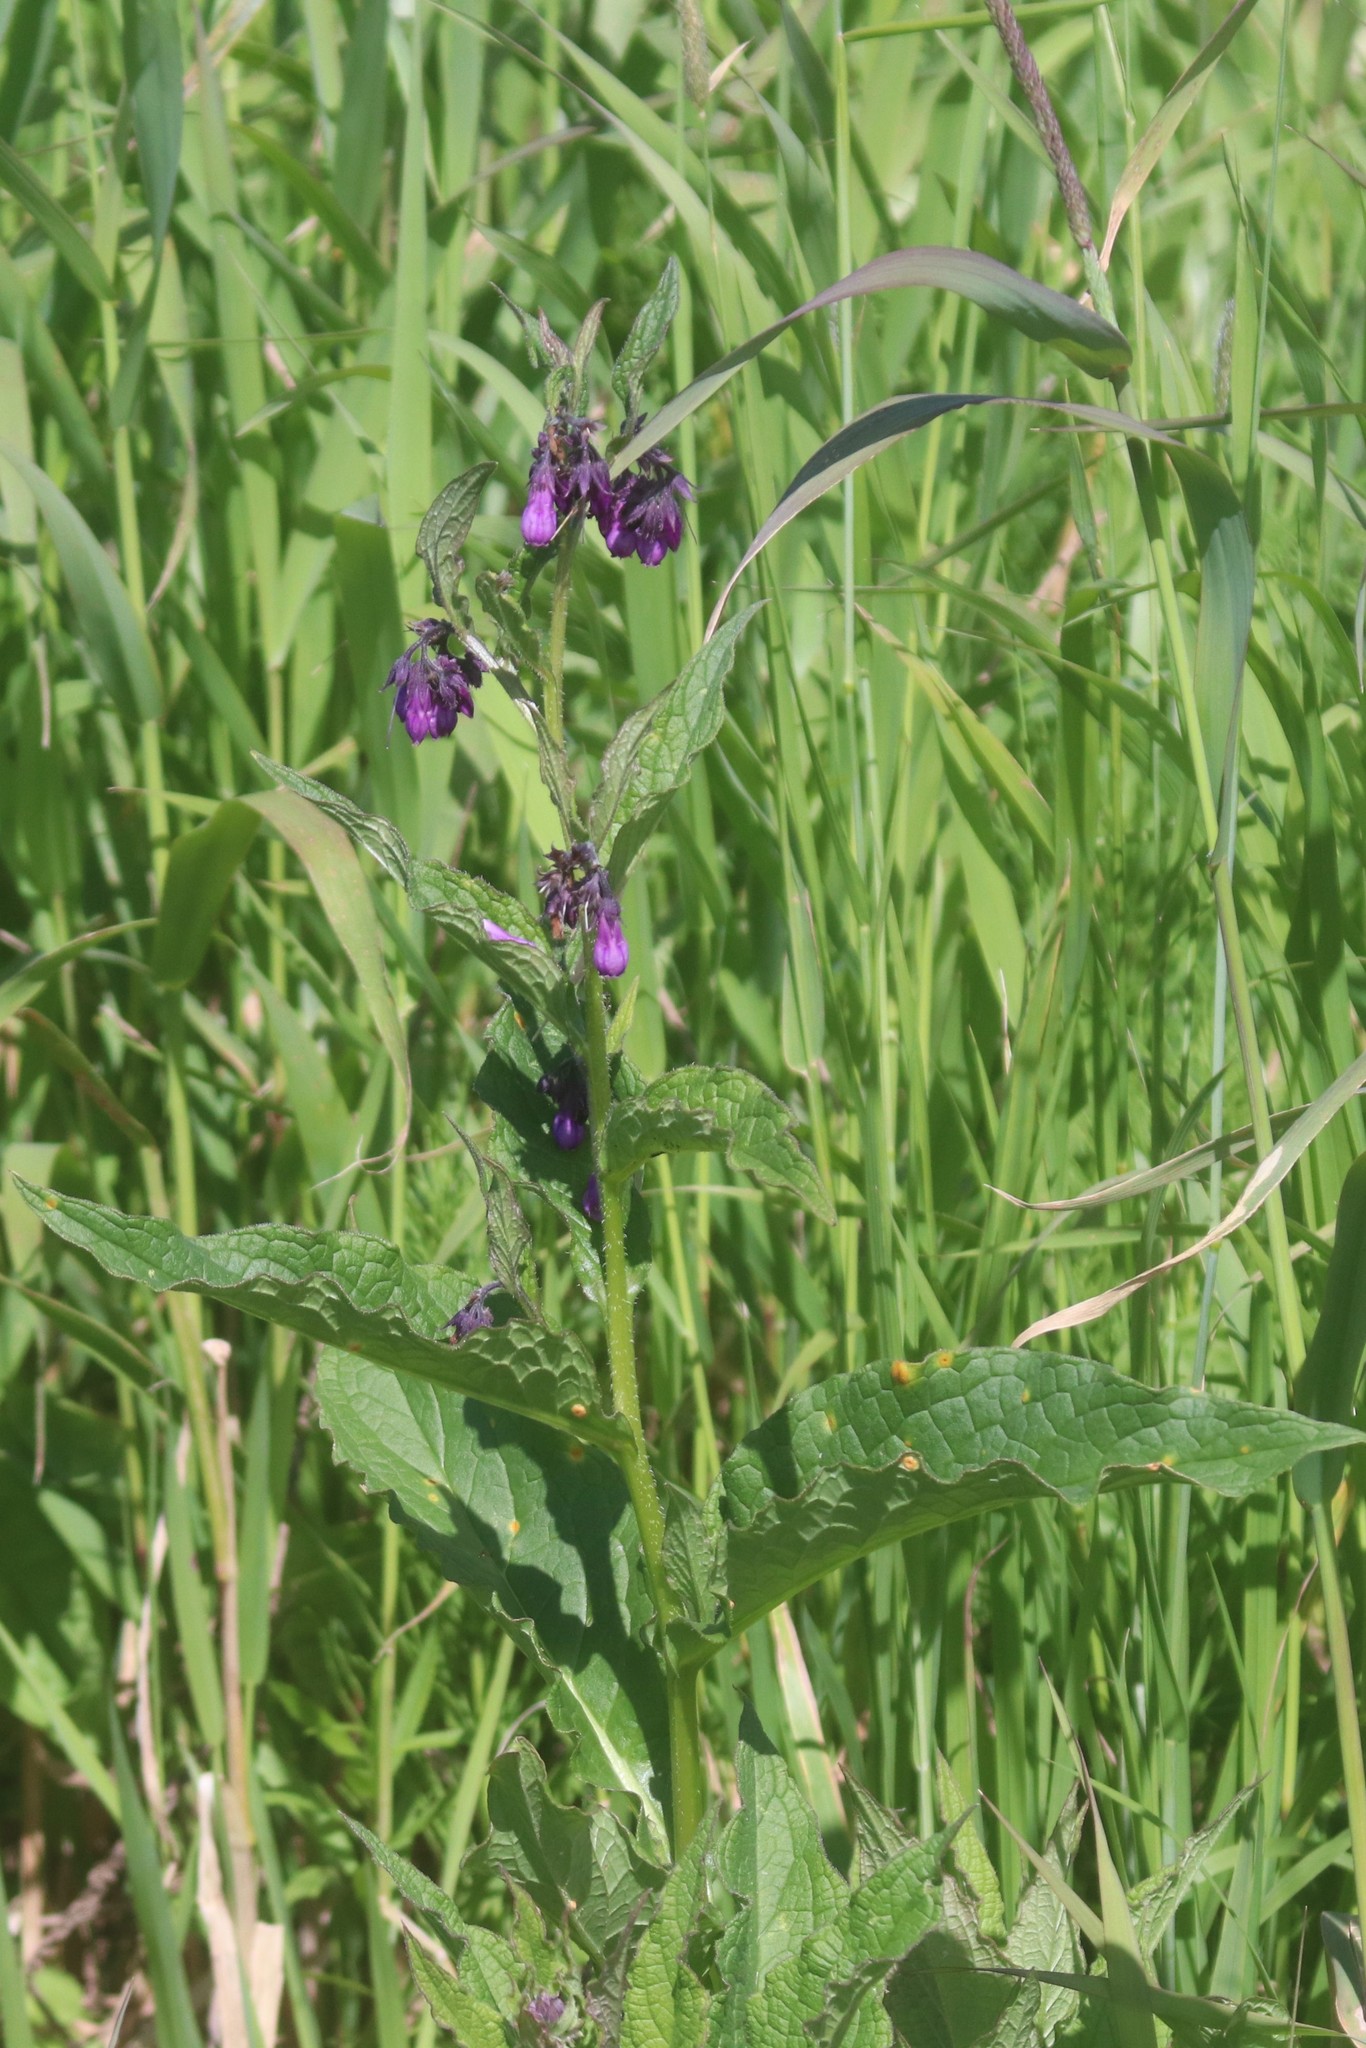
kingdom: Plantae
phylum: Tracheophyta
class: Magnoliopsida
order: Boraginales
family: Boraginaceae
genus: Symphytum
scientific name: Symphytum officinale
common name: Common comfrey
